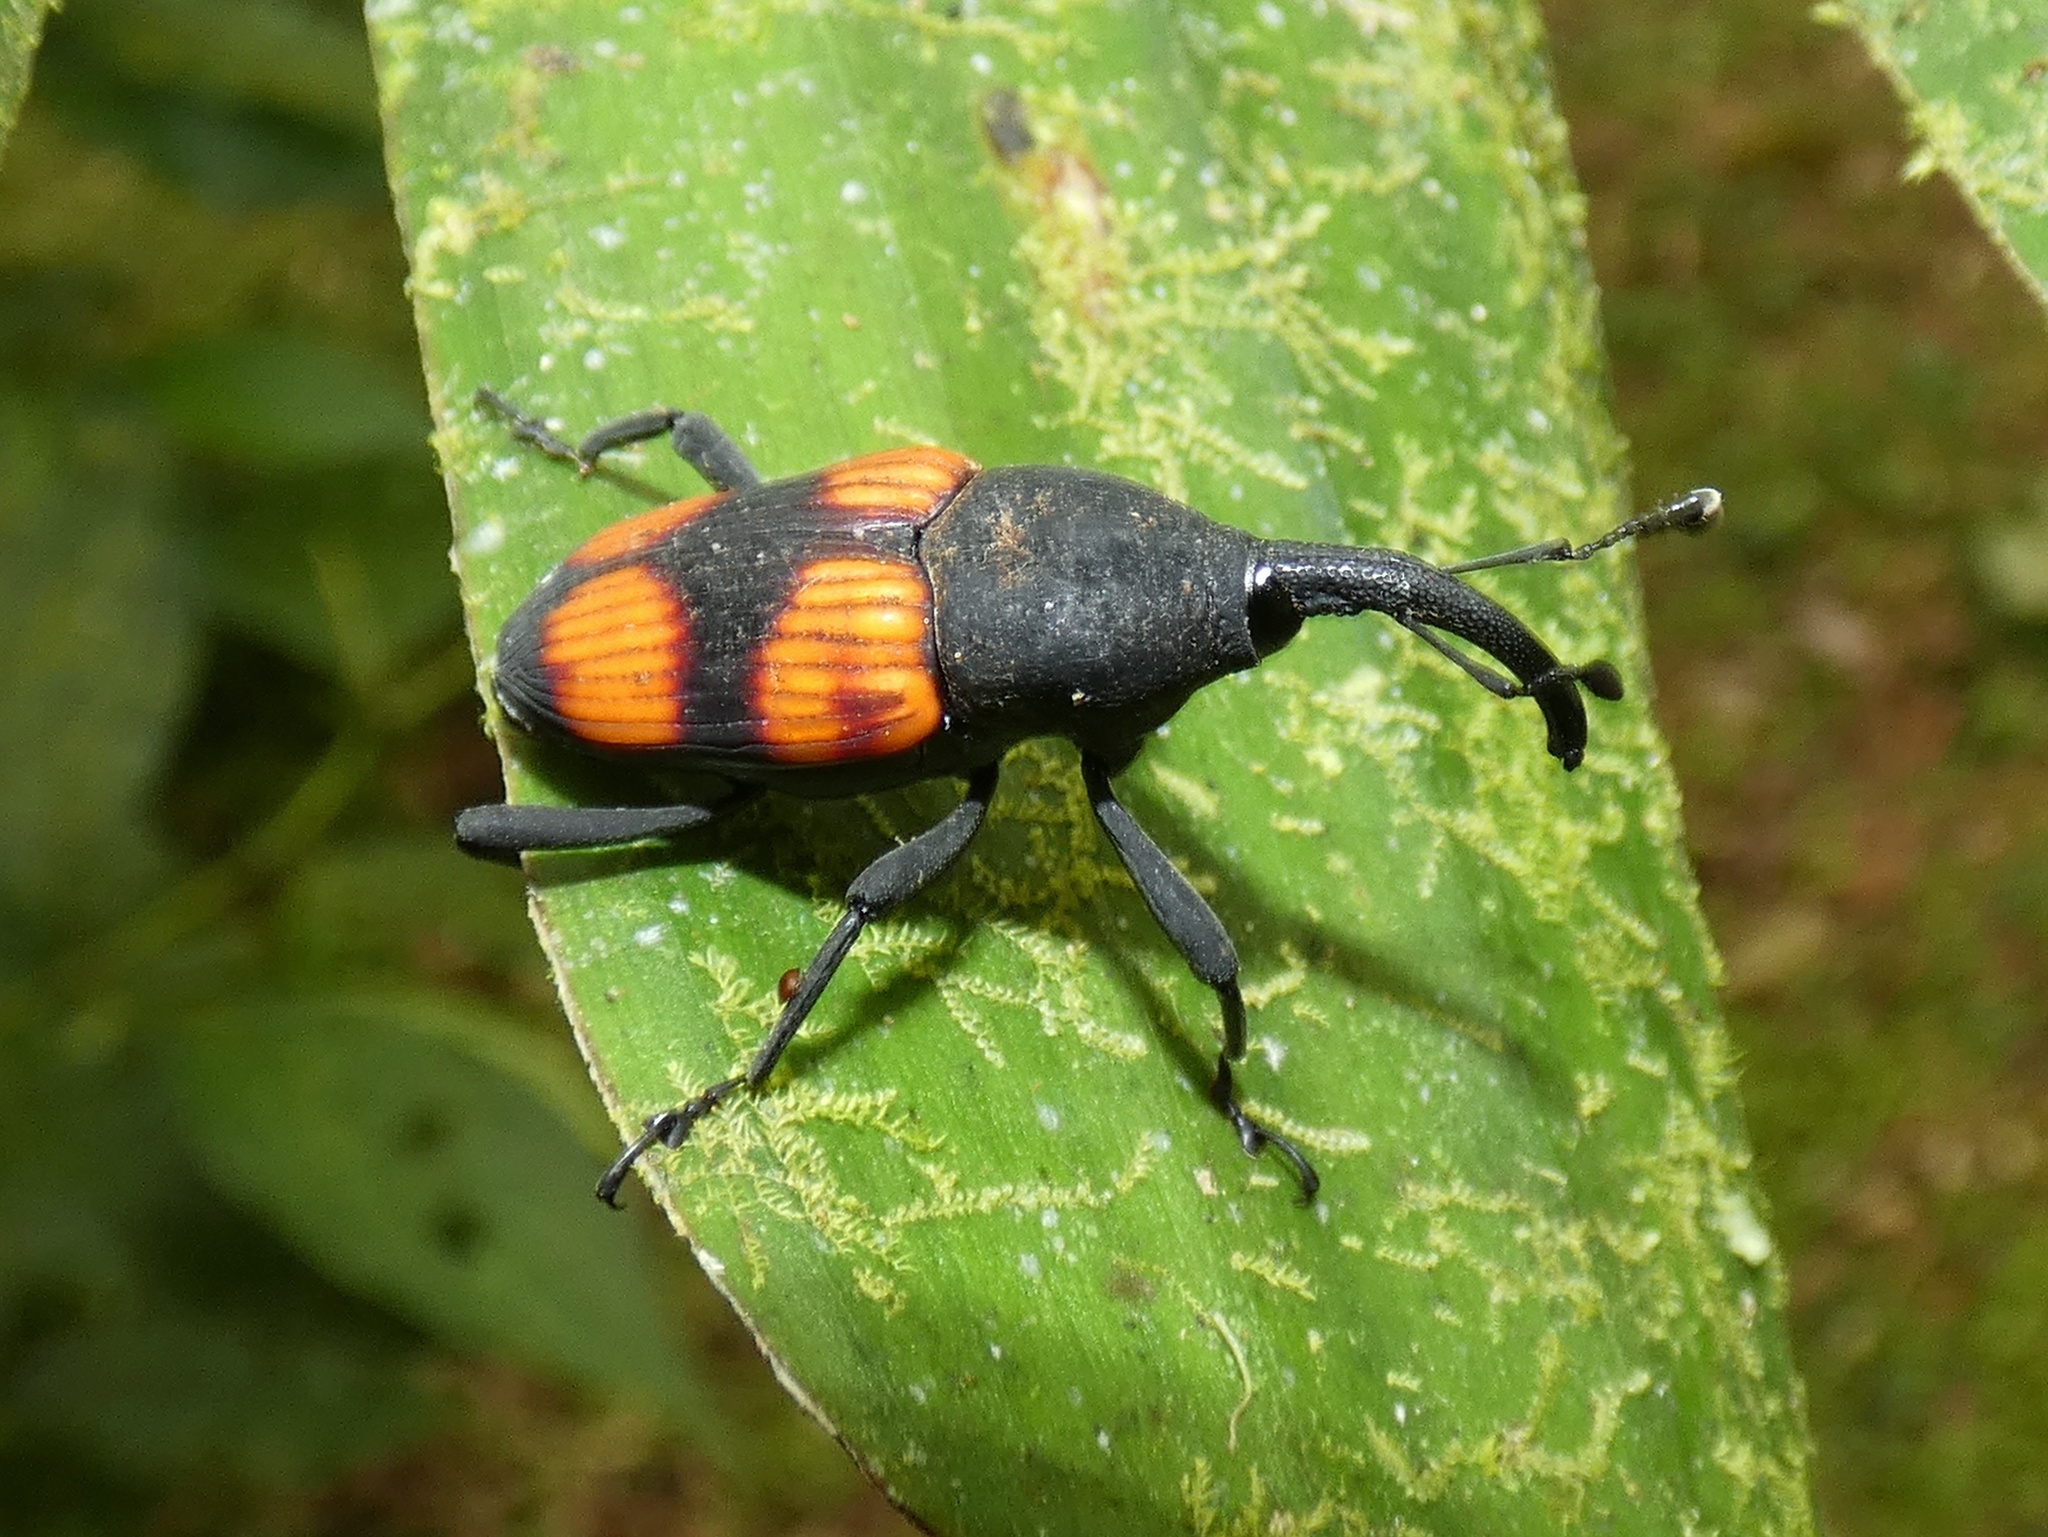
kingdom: Animalia
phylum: Arthropoda
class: Insecta
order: Coleoptera
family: Dryophthoridae
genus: Cactophagus
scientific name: Cactophagus rubrovariegatus
